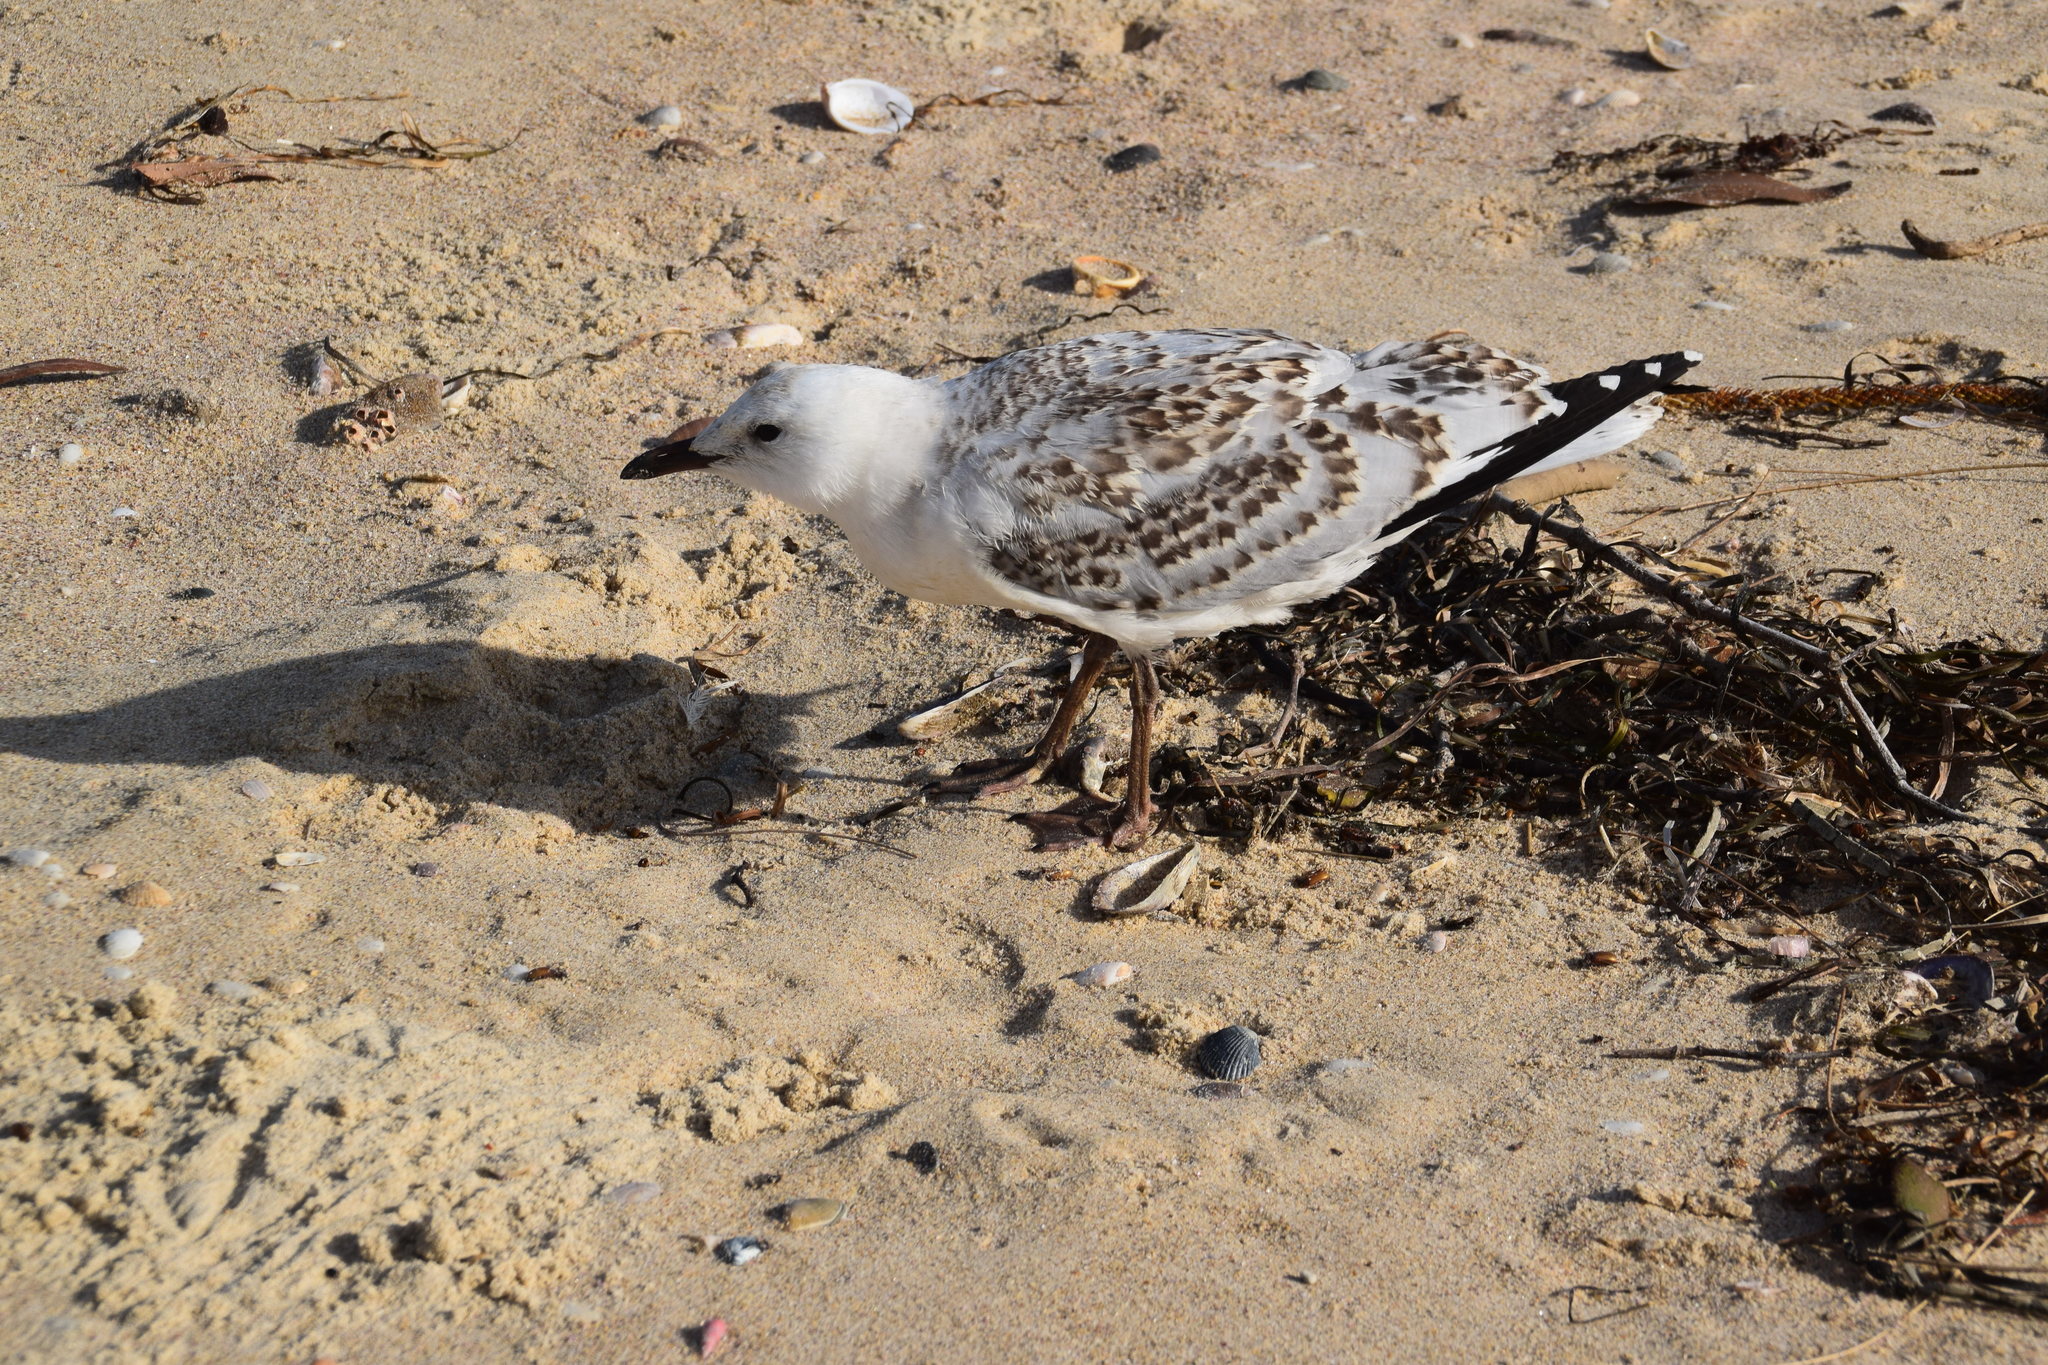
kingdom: Animalia
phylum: Chordata
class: Aves
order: Charadriiformes
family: Laridae
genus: Chroicocephalus
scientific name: Chroicocephalus novaehollandiae
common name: Silver gull
